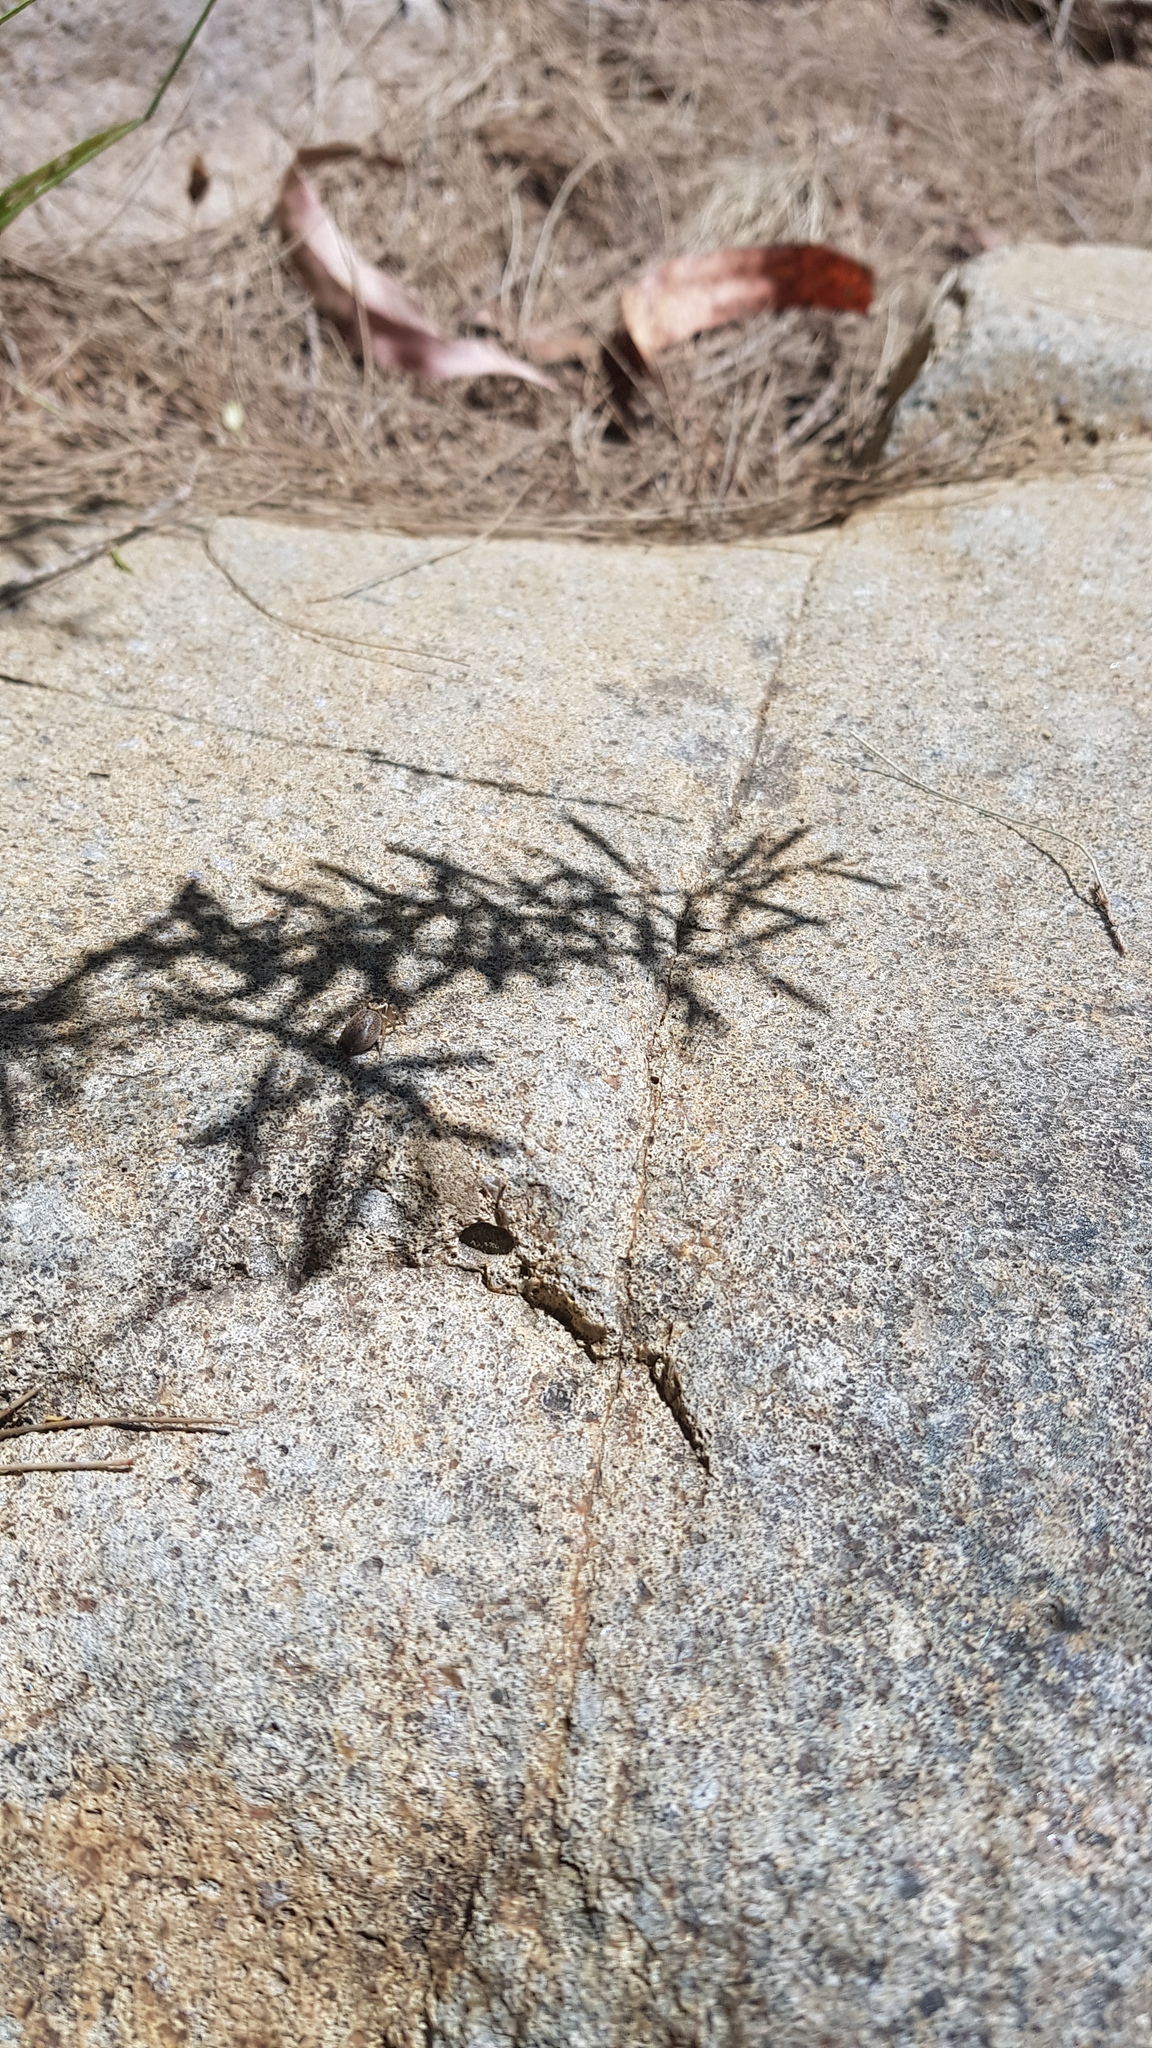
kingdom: Animalia
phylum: Arthropoda
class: Arachnida
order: Araneae
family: Salticidae
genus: Maratus
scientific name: Maratus griseus
